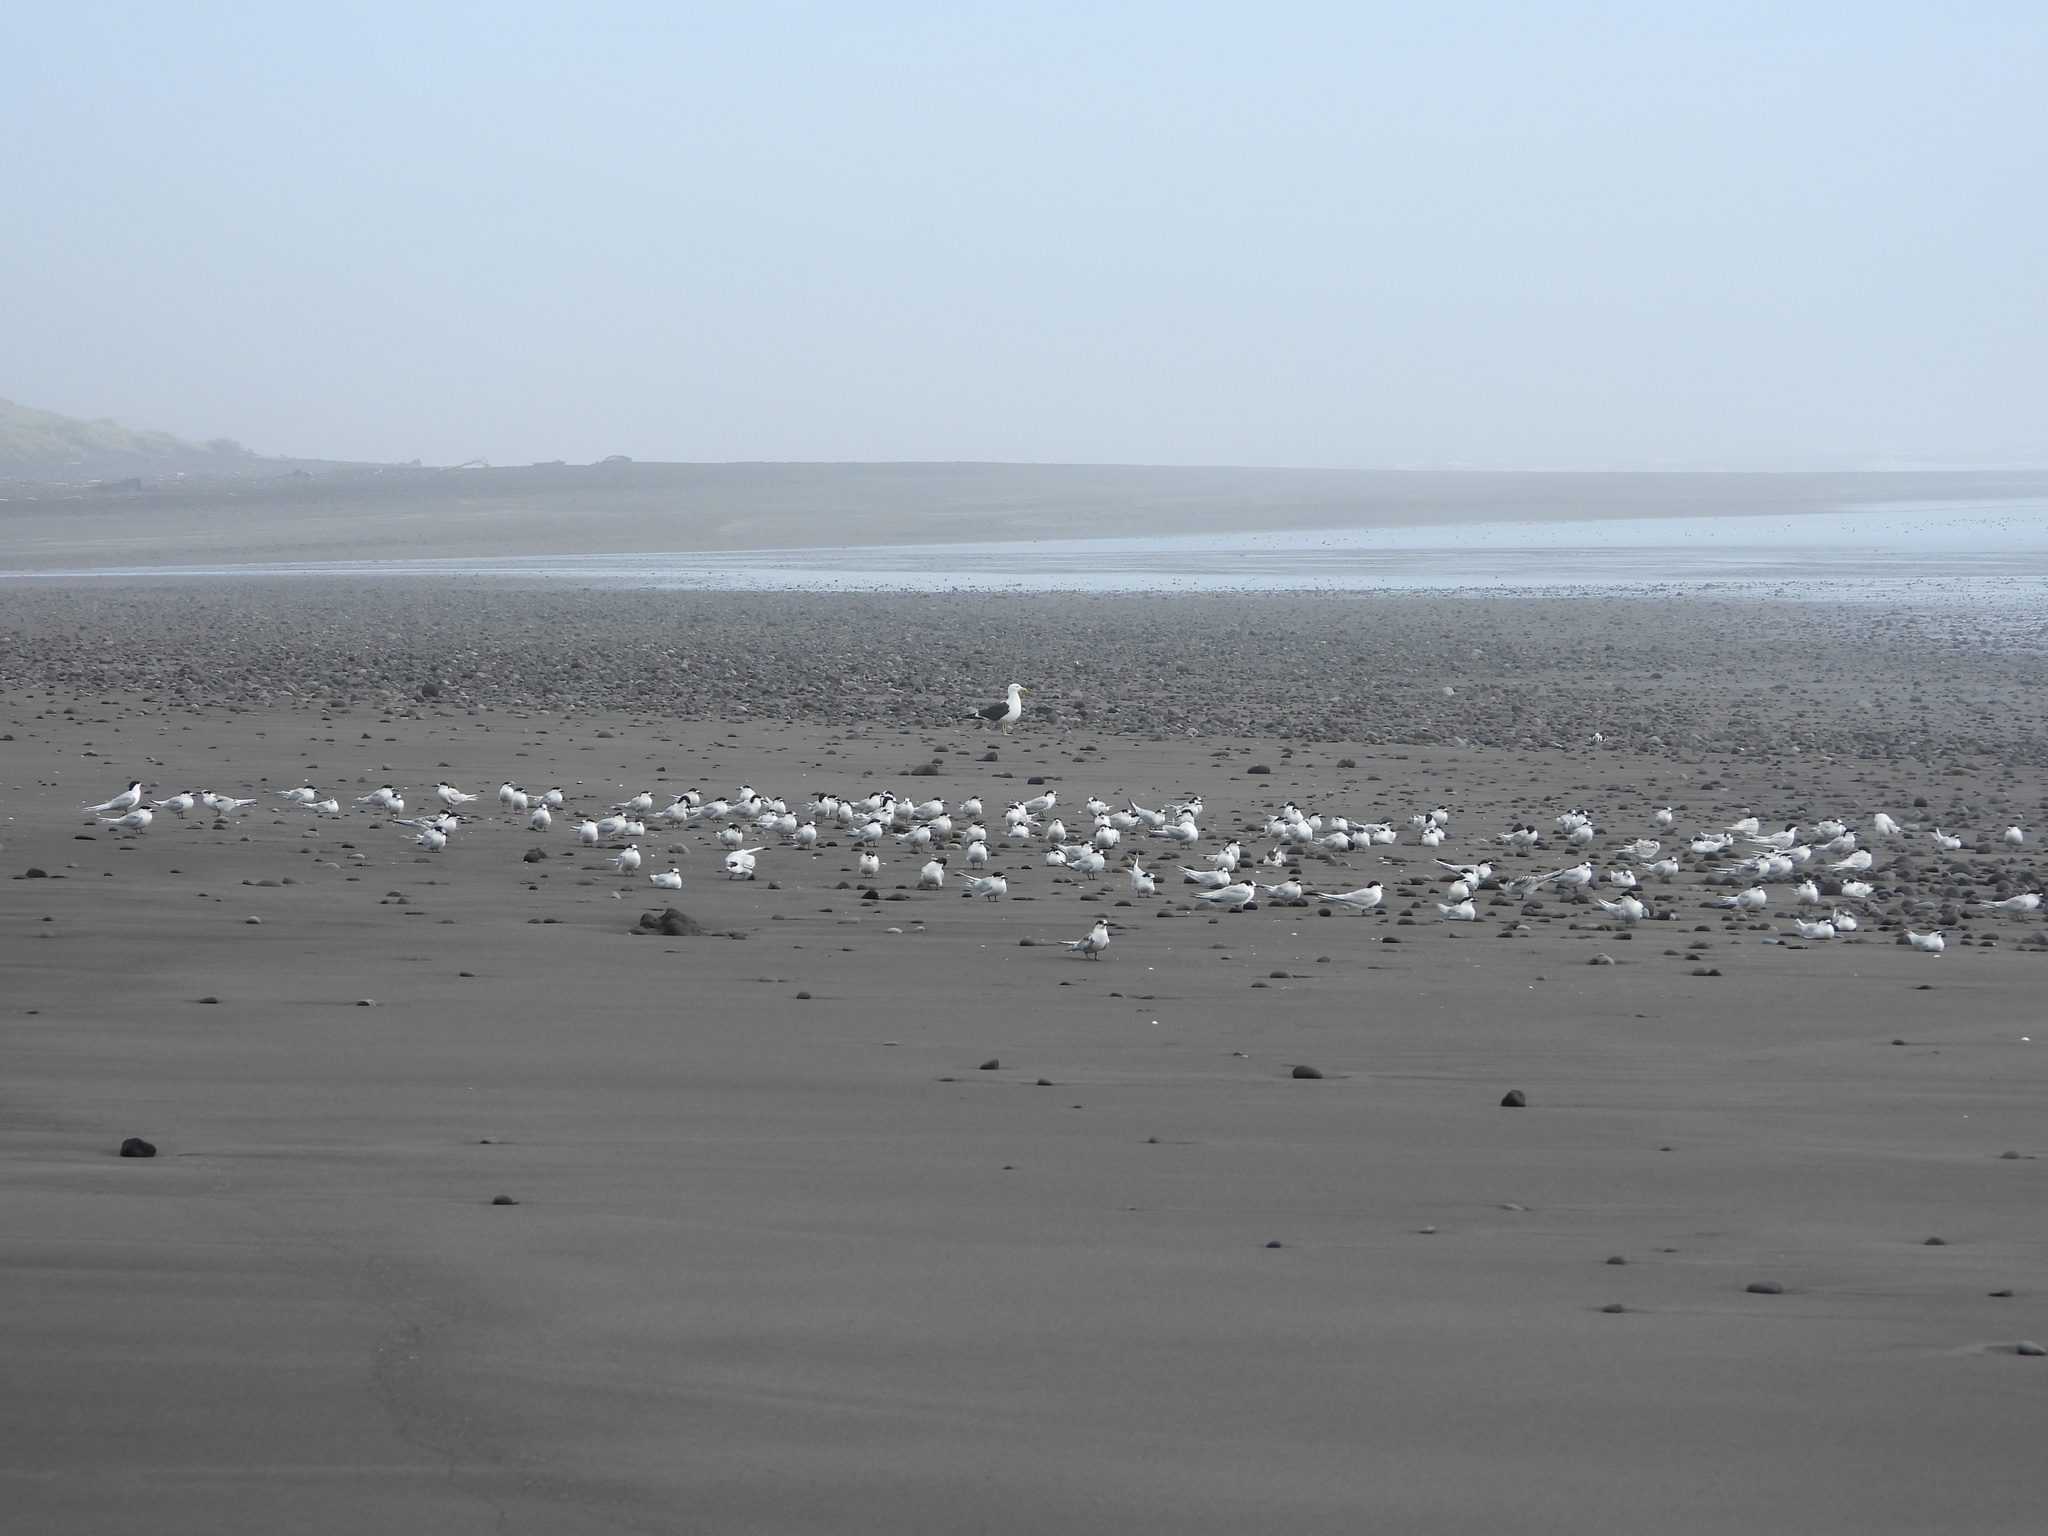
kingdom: Animalia
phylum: Chordata
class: Aves
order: Charadriiformes
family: Laridae
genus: Sterna
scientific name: Sterna striata
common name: White-fronted tern
